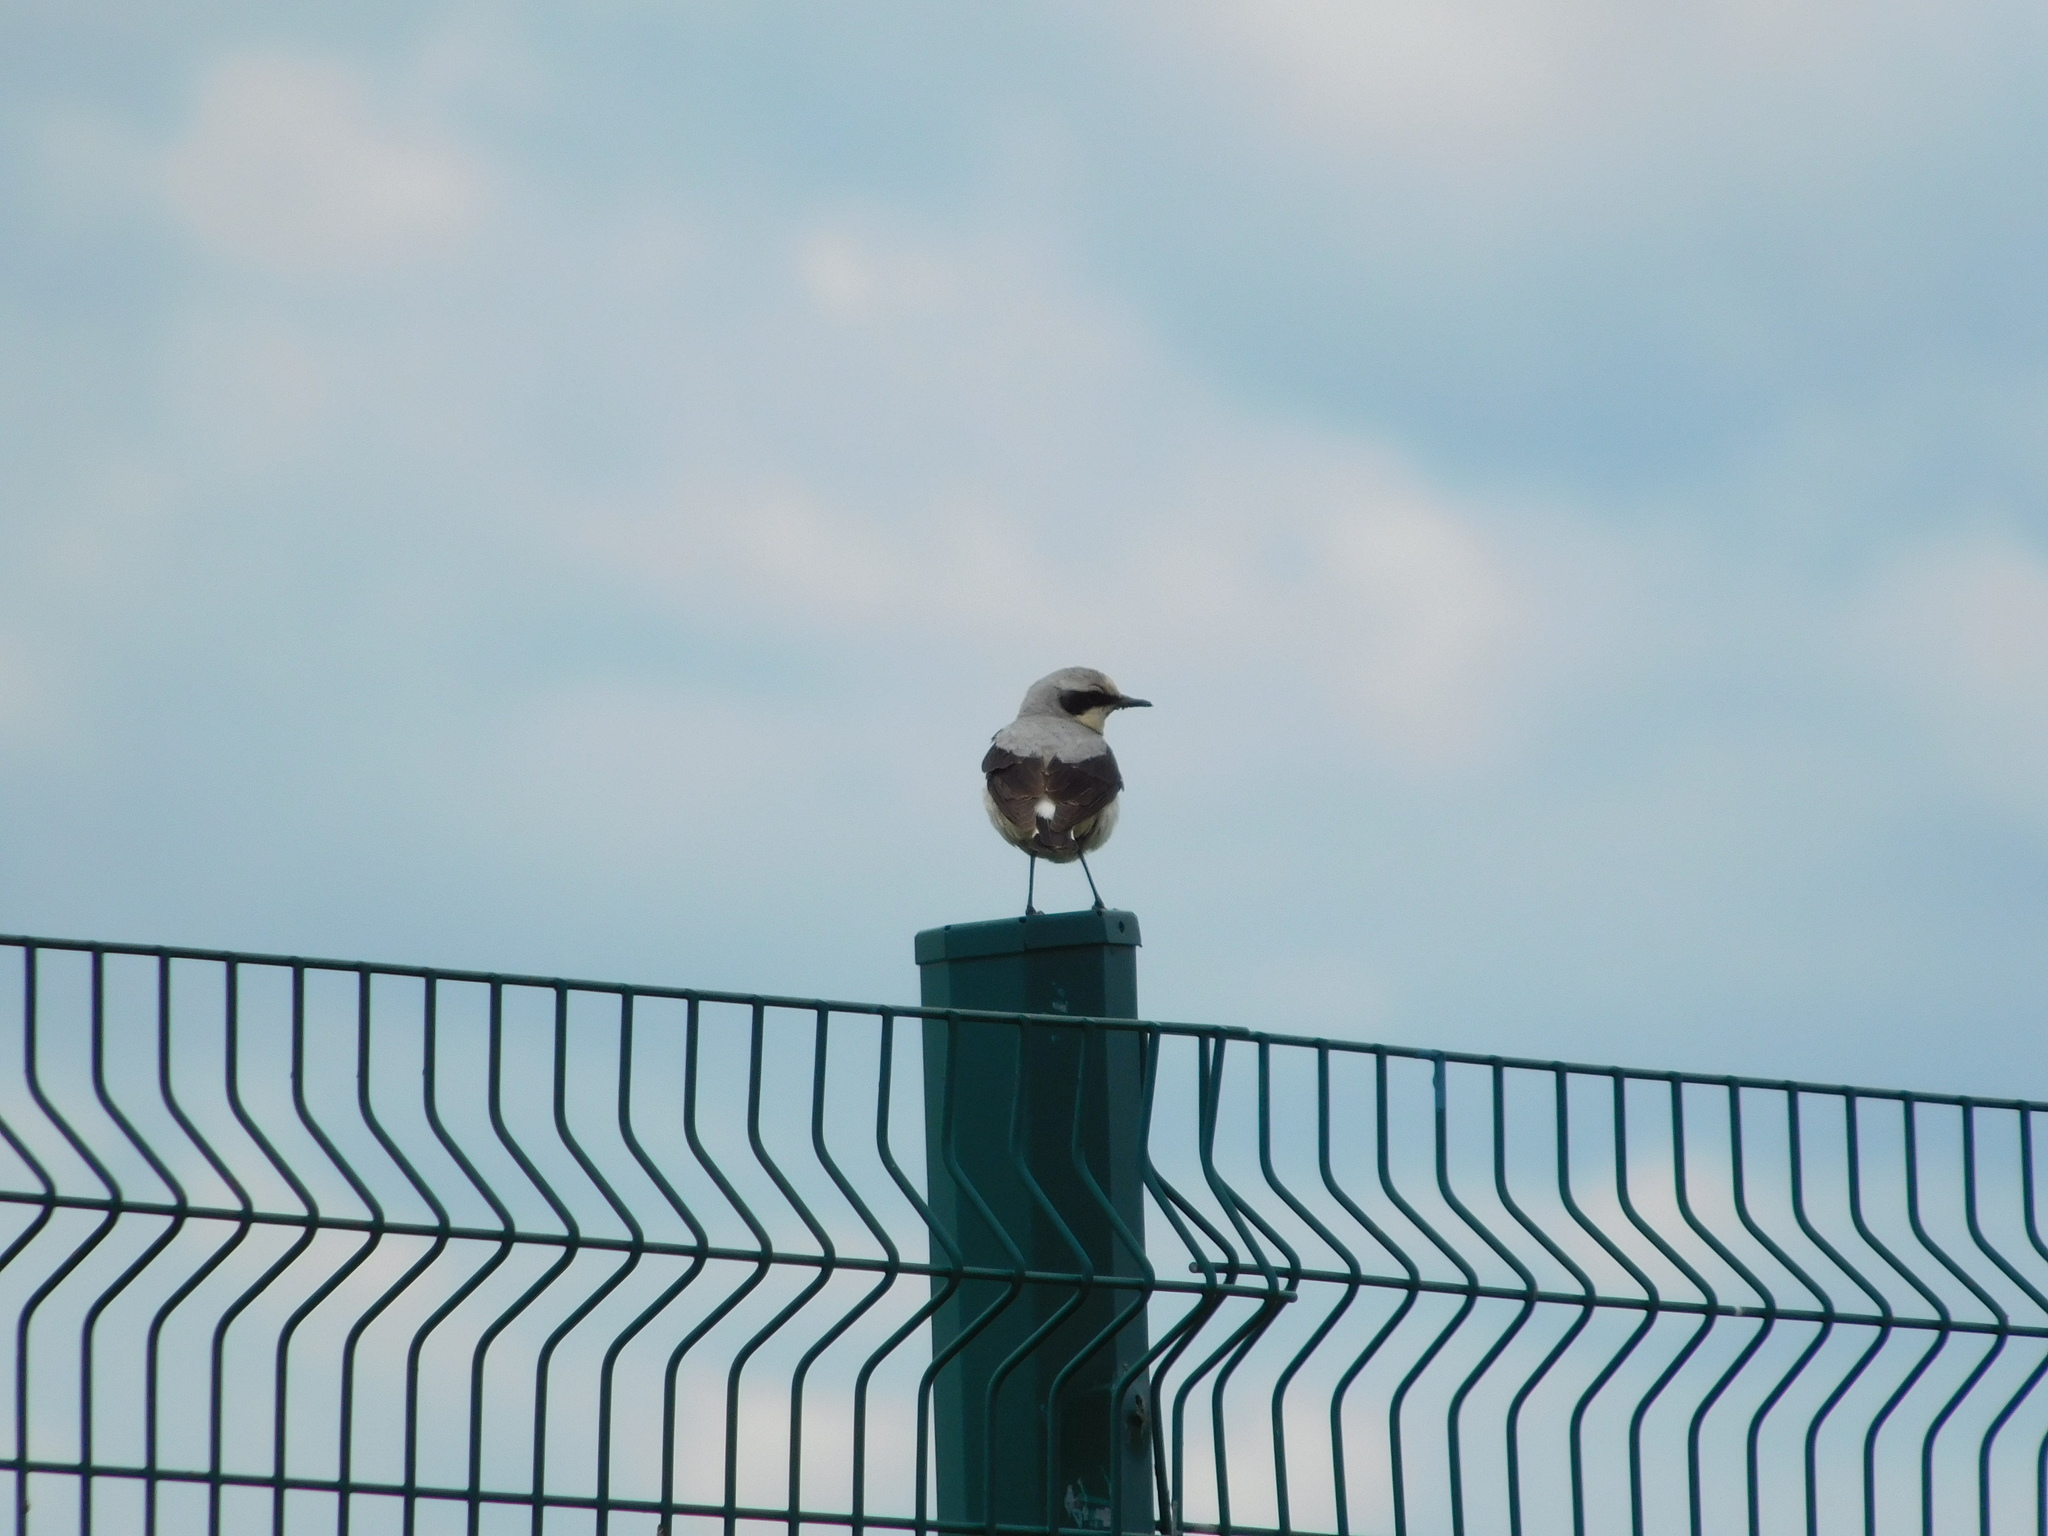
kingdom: Animalia
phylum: Chordata
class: Aves
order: Passeriformes
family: Muscicapidae
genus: Oenanthe
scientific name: Oenanthe oenanthe
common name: Northern wheatear
